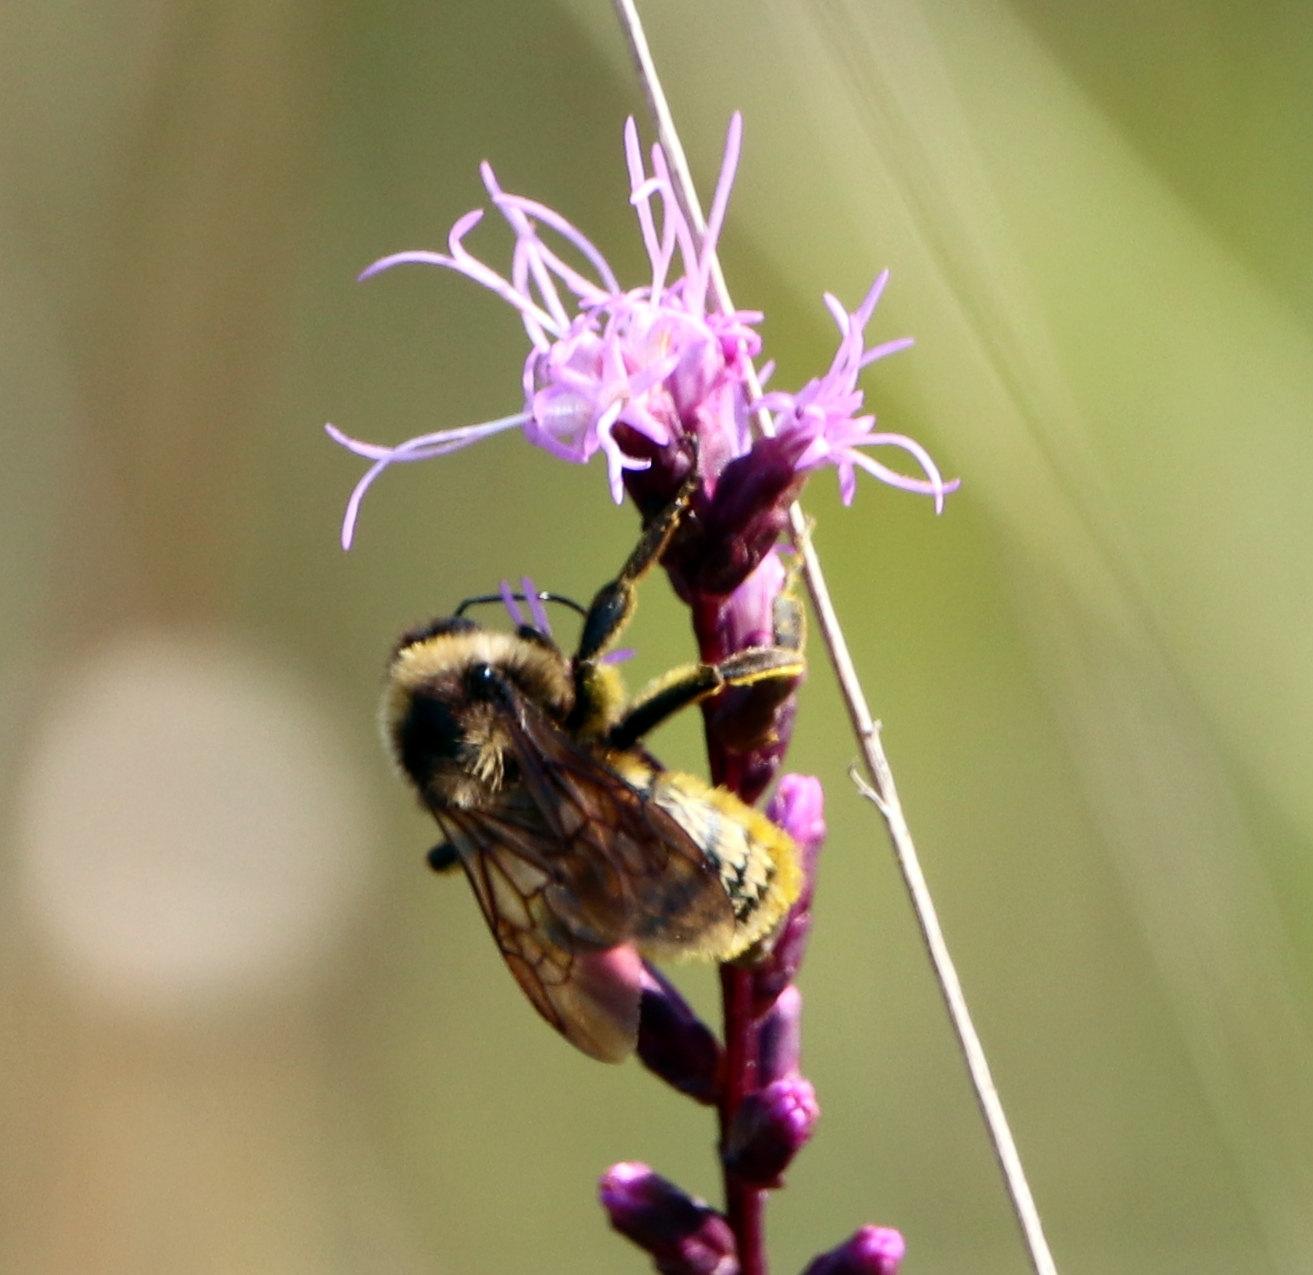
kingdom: Animalia
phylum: Arthropoda
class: Insecta
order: Hymenoptera
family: Apidae
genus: Bombus
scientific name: Bombus pensylvanicus
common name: Bumble bee
